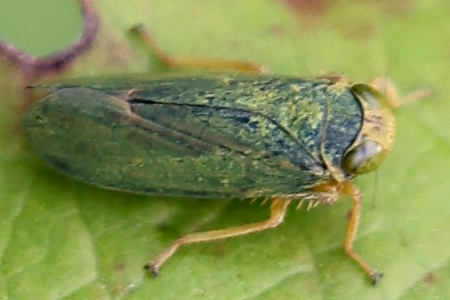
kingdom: Animalia
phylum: Arthropoda
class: Insecta
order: Hemiptera
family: Cicadellidae
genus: Jikradia
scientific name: Jikradia olitoria
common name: Coppery leafhopper
